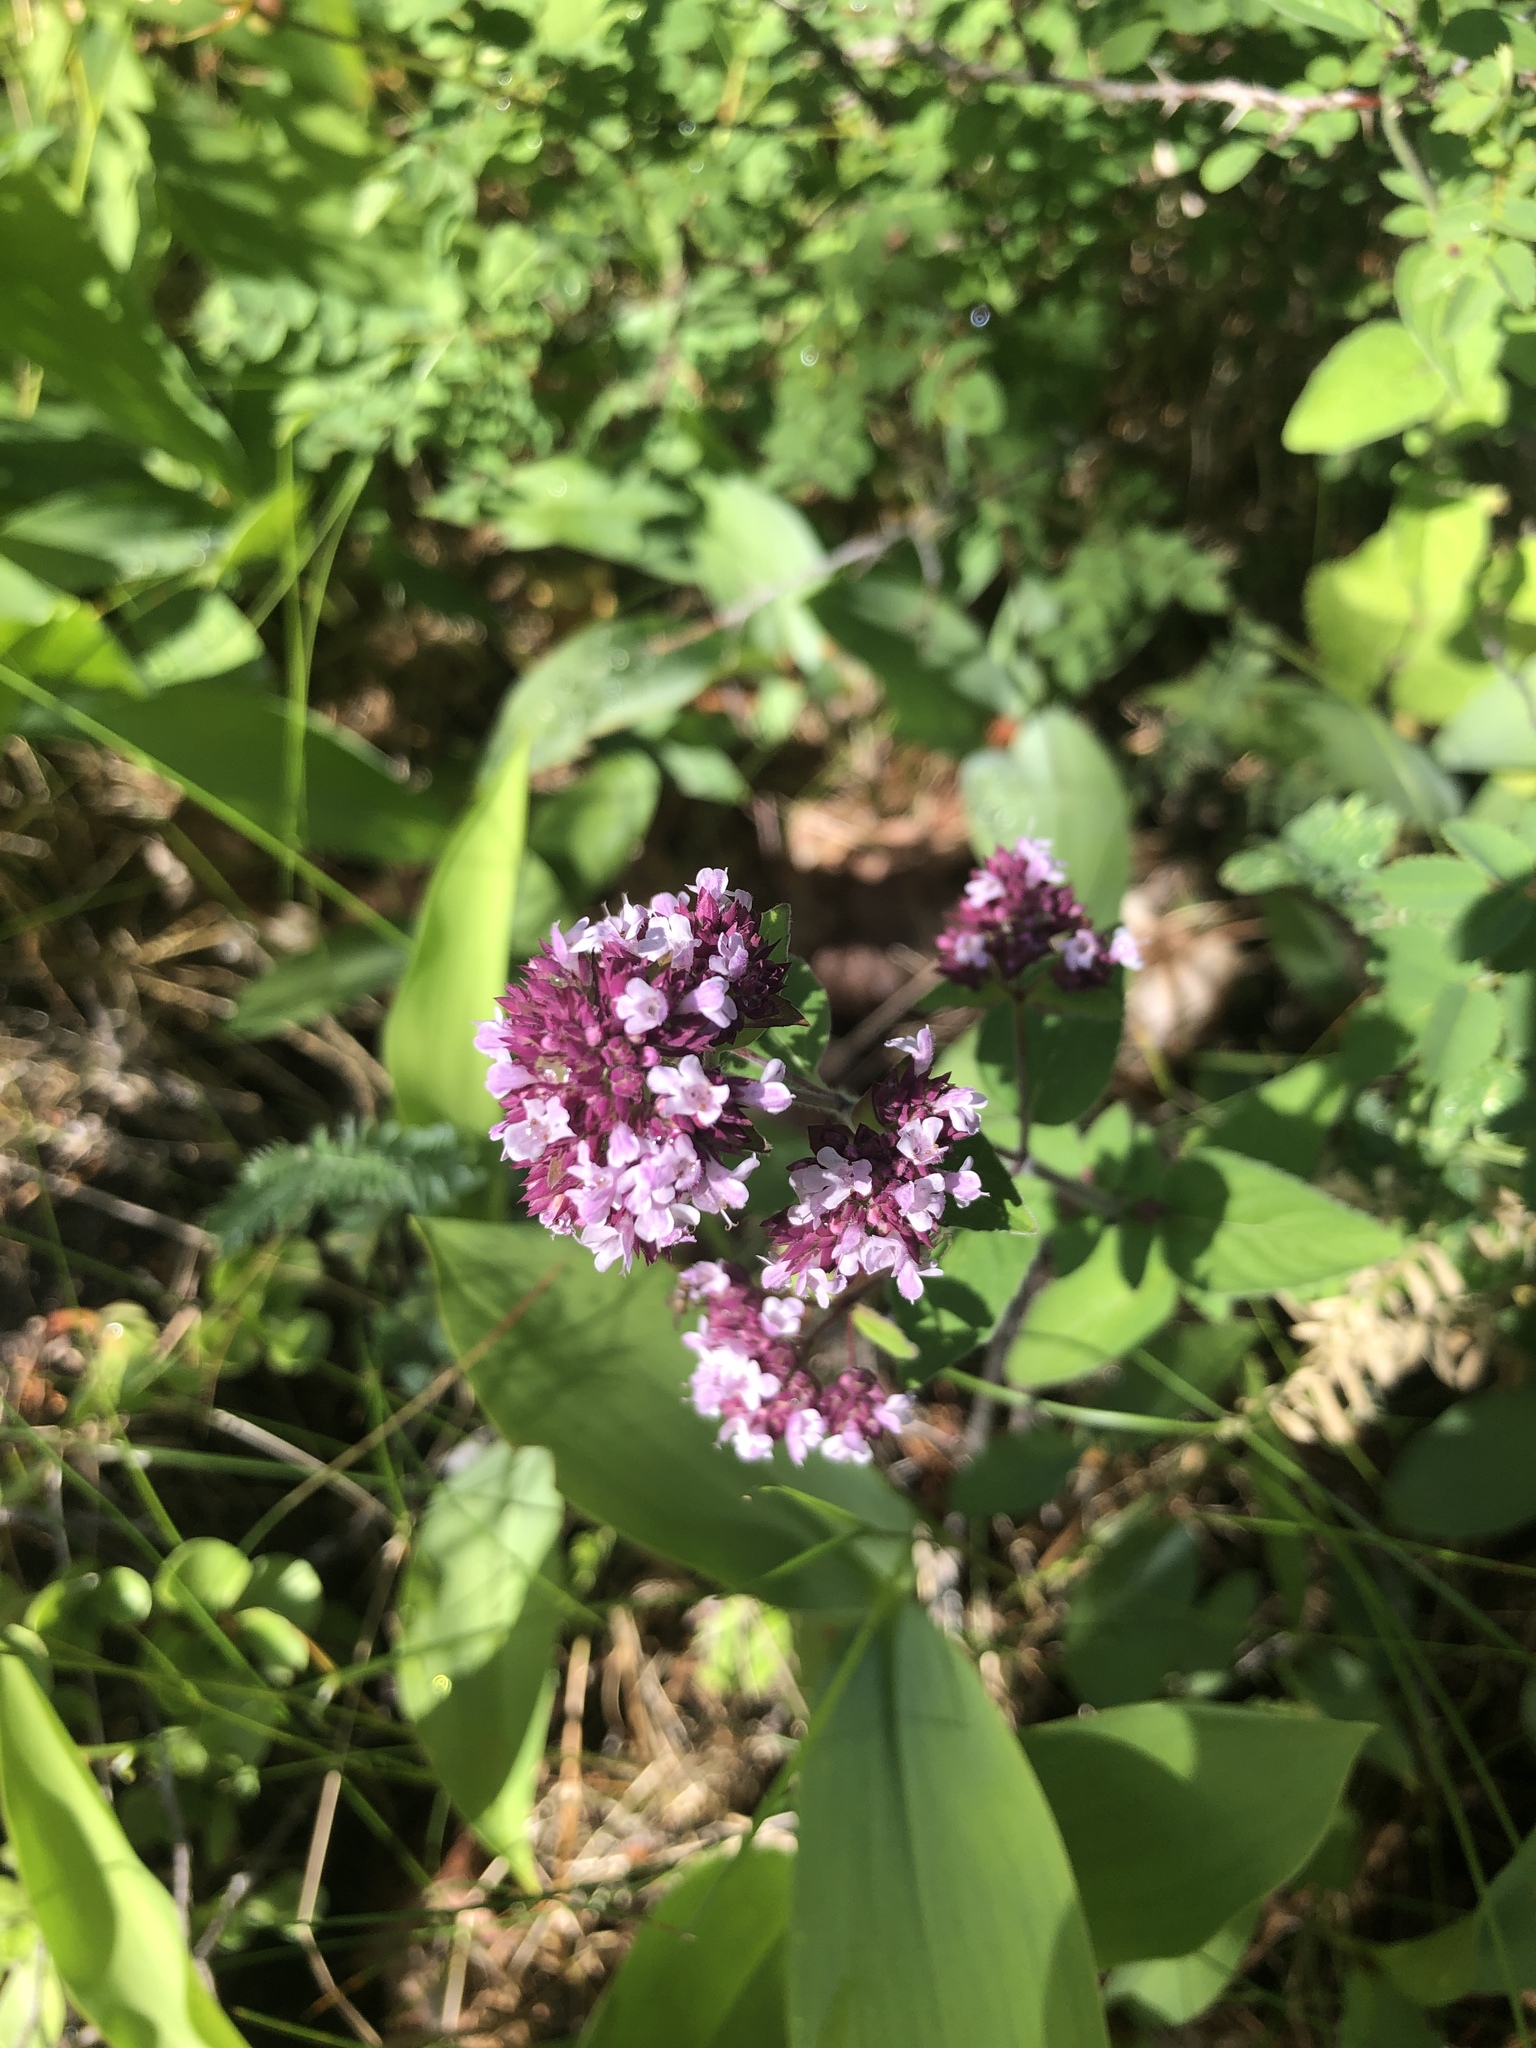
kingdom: Plantae
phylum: Tracheophyta
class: Magnoliopsida
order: Lamiales
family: Lamiaceae
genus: Origanum
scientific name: Origanum vulgare
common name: Wild marjoram
